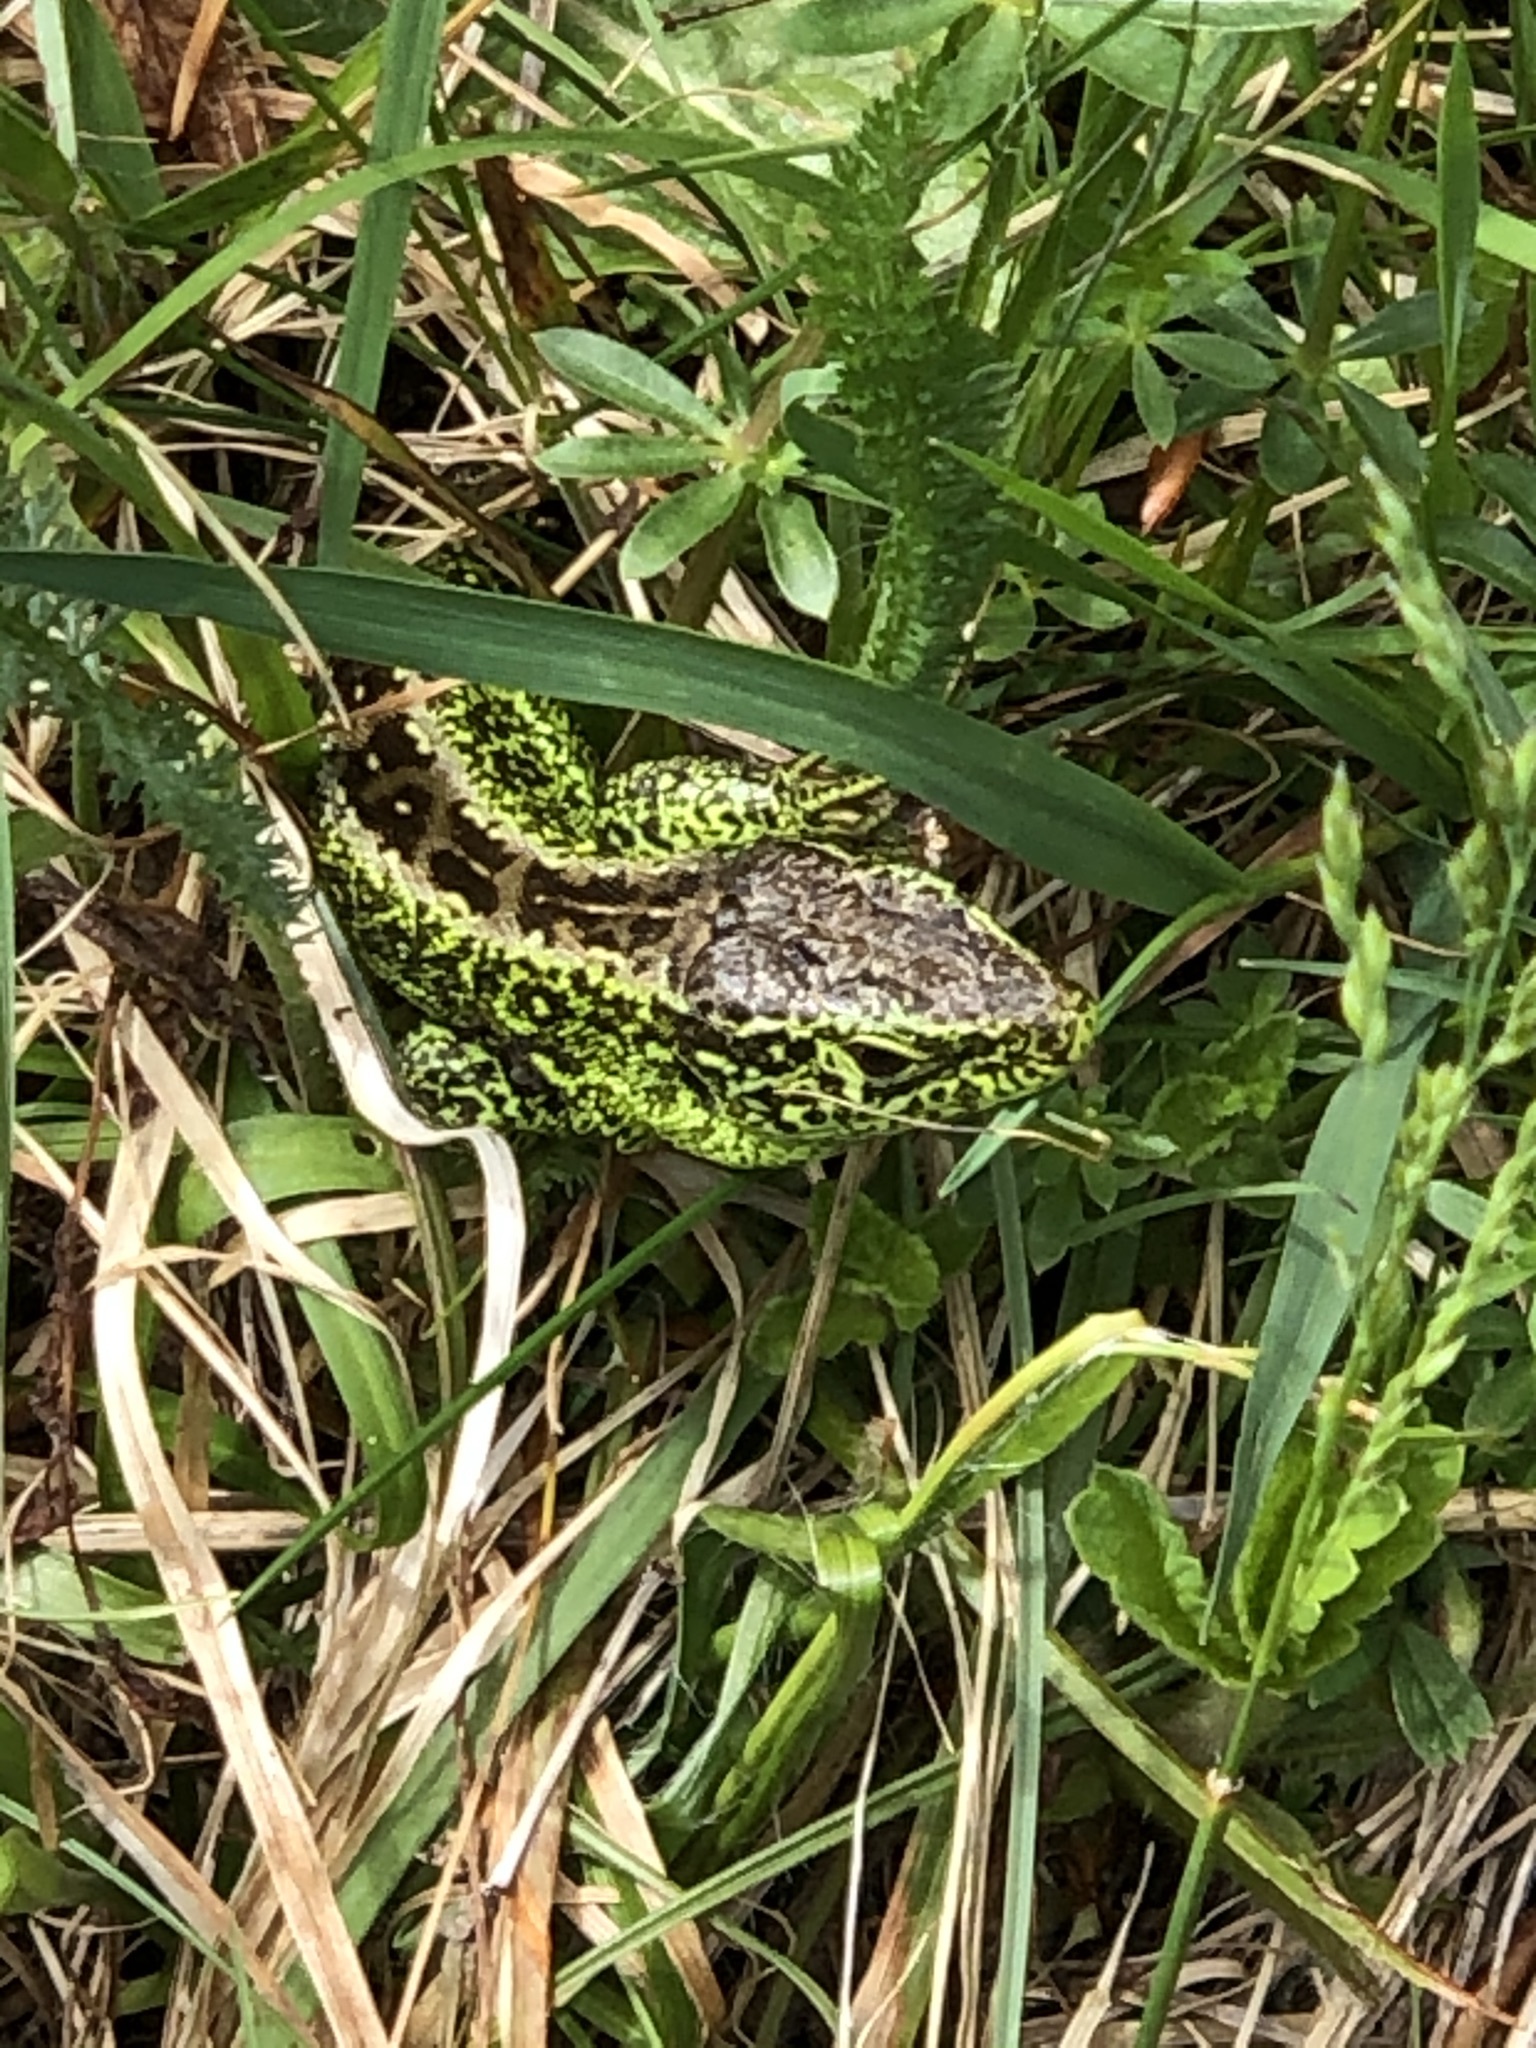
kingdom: Animalia
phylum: Chordata
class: Squamata
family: Lacertidae
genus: Lacerta
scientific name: Lacerta agilis
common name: Sand lizard
